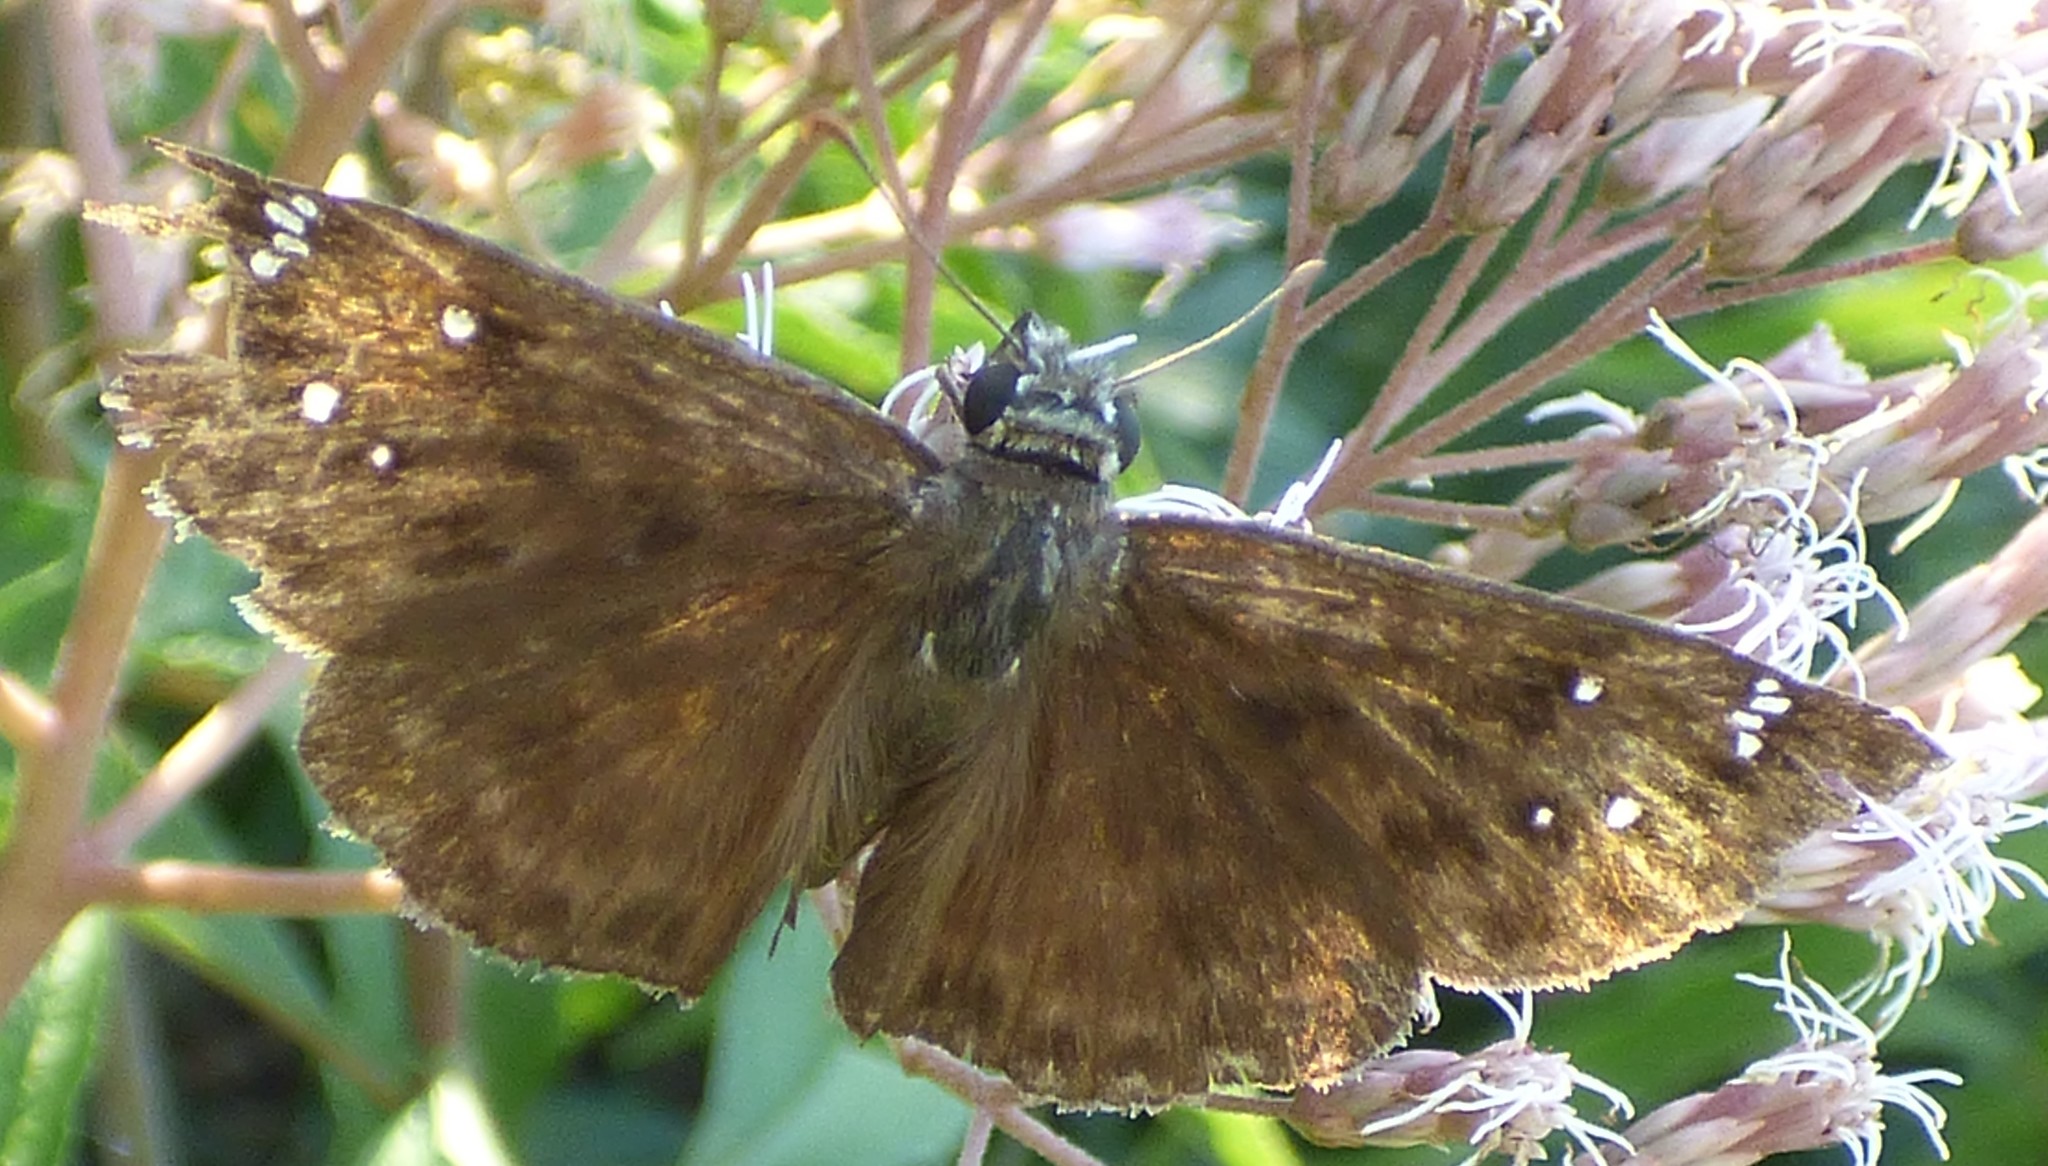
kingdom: Animalia
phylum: Arthropoda
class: Insecta
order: Lepidoptera
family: Hesperiidae
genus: Erynnis
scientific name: Erynnis horatius
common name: Horace's duskywing
